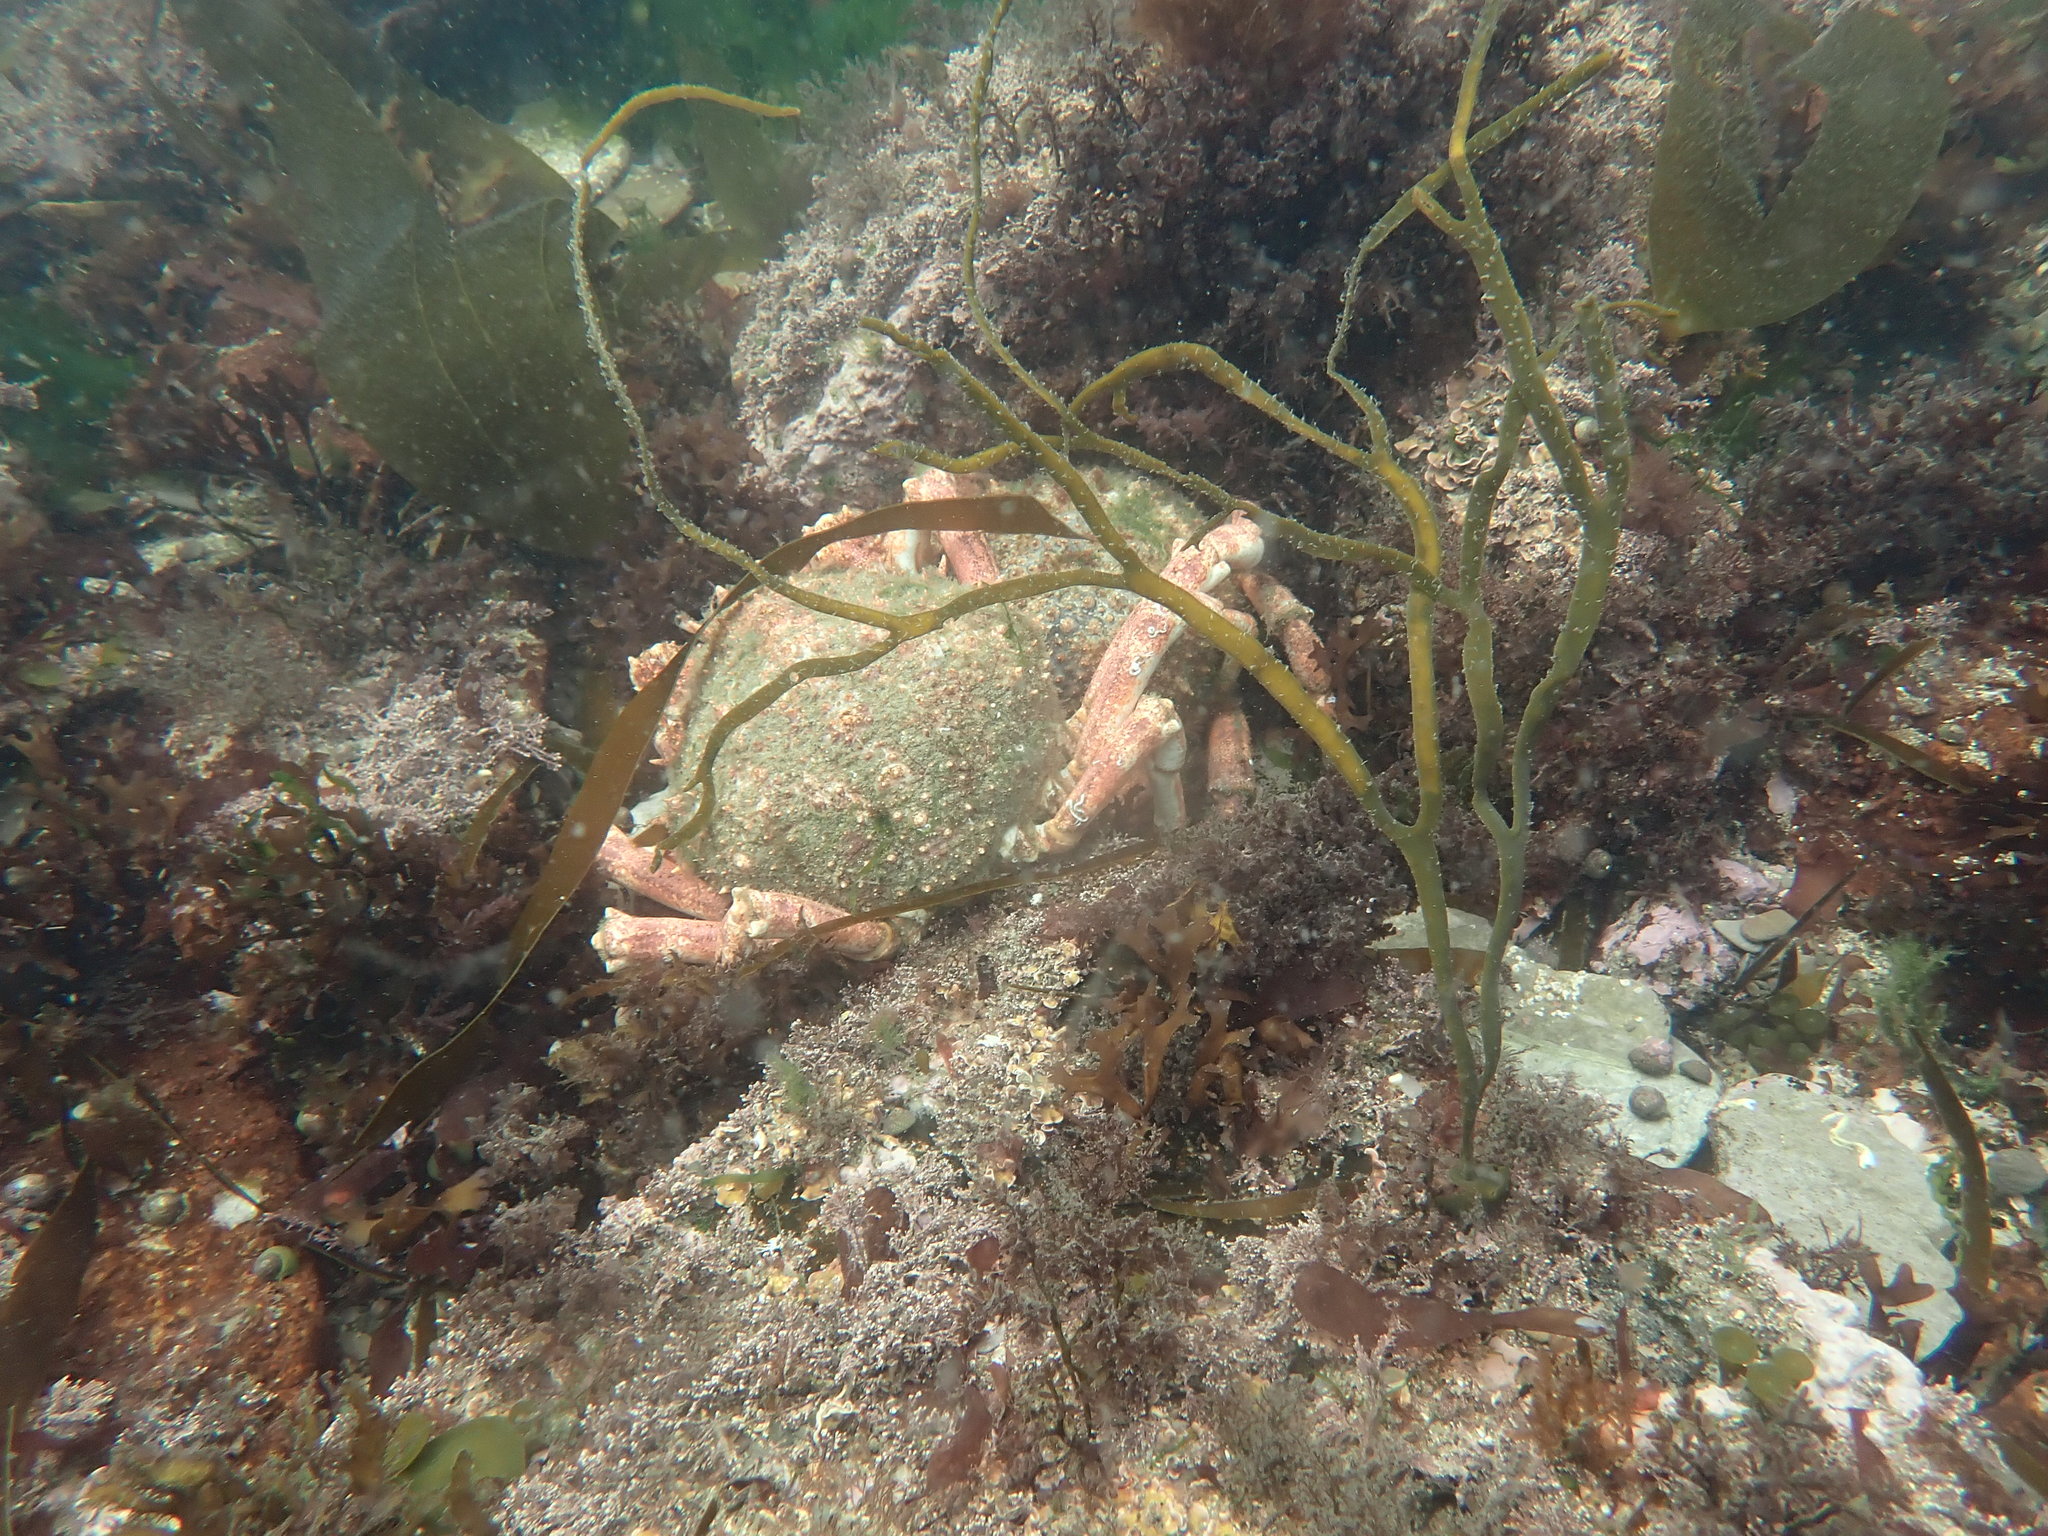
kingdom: Animalia
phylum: Arthropoda
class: Malacostraca
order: Decapoda
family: Majidae
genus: Maja
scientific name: Maja brachydactyla
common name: Common spider crab
